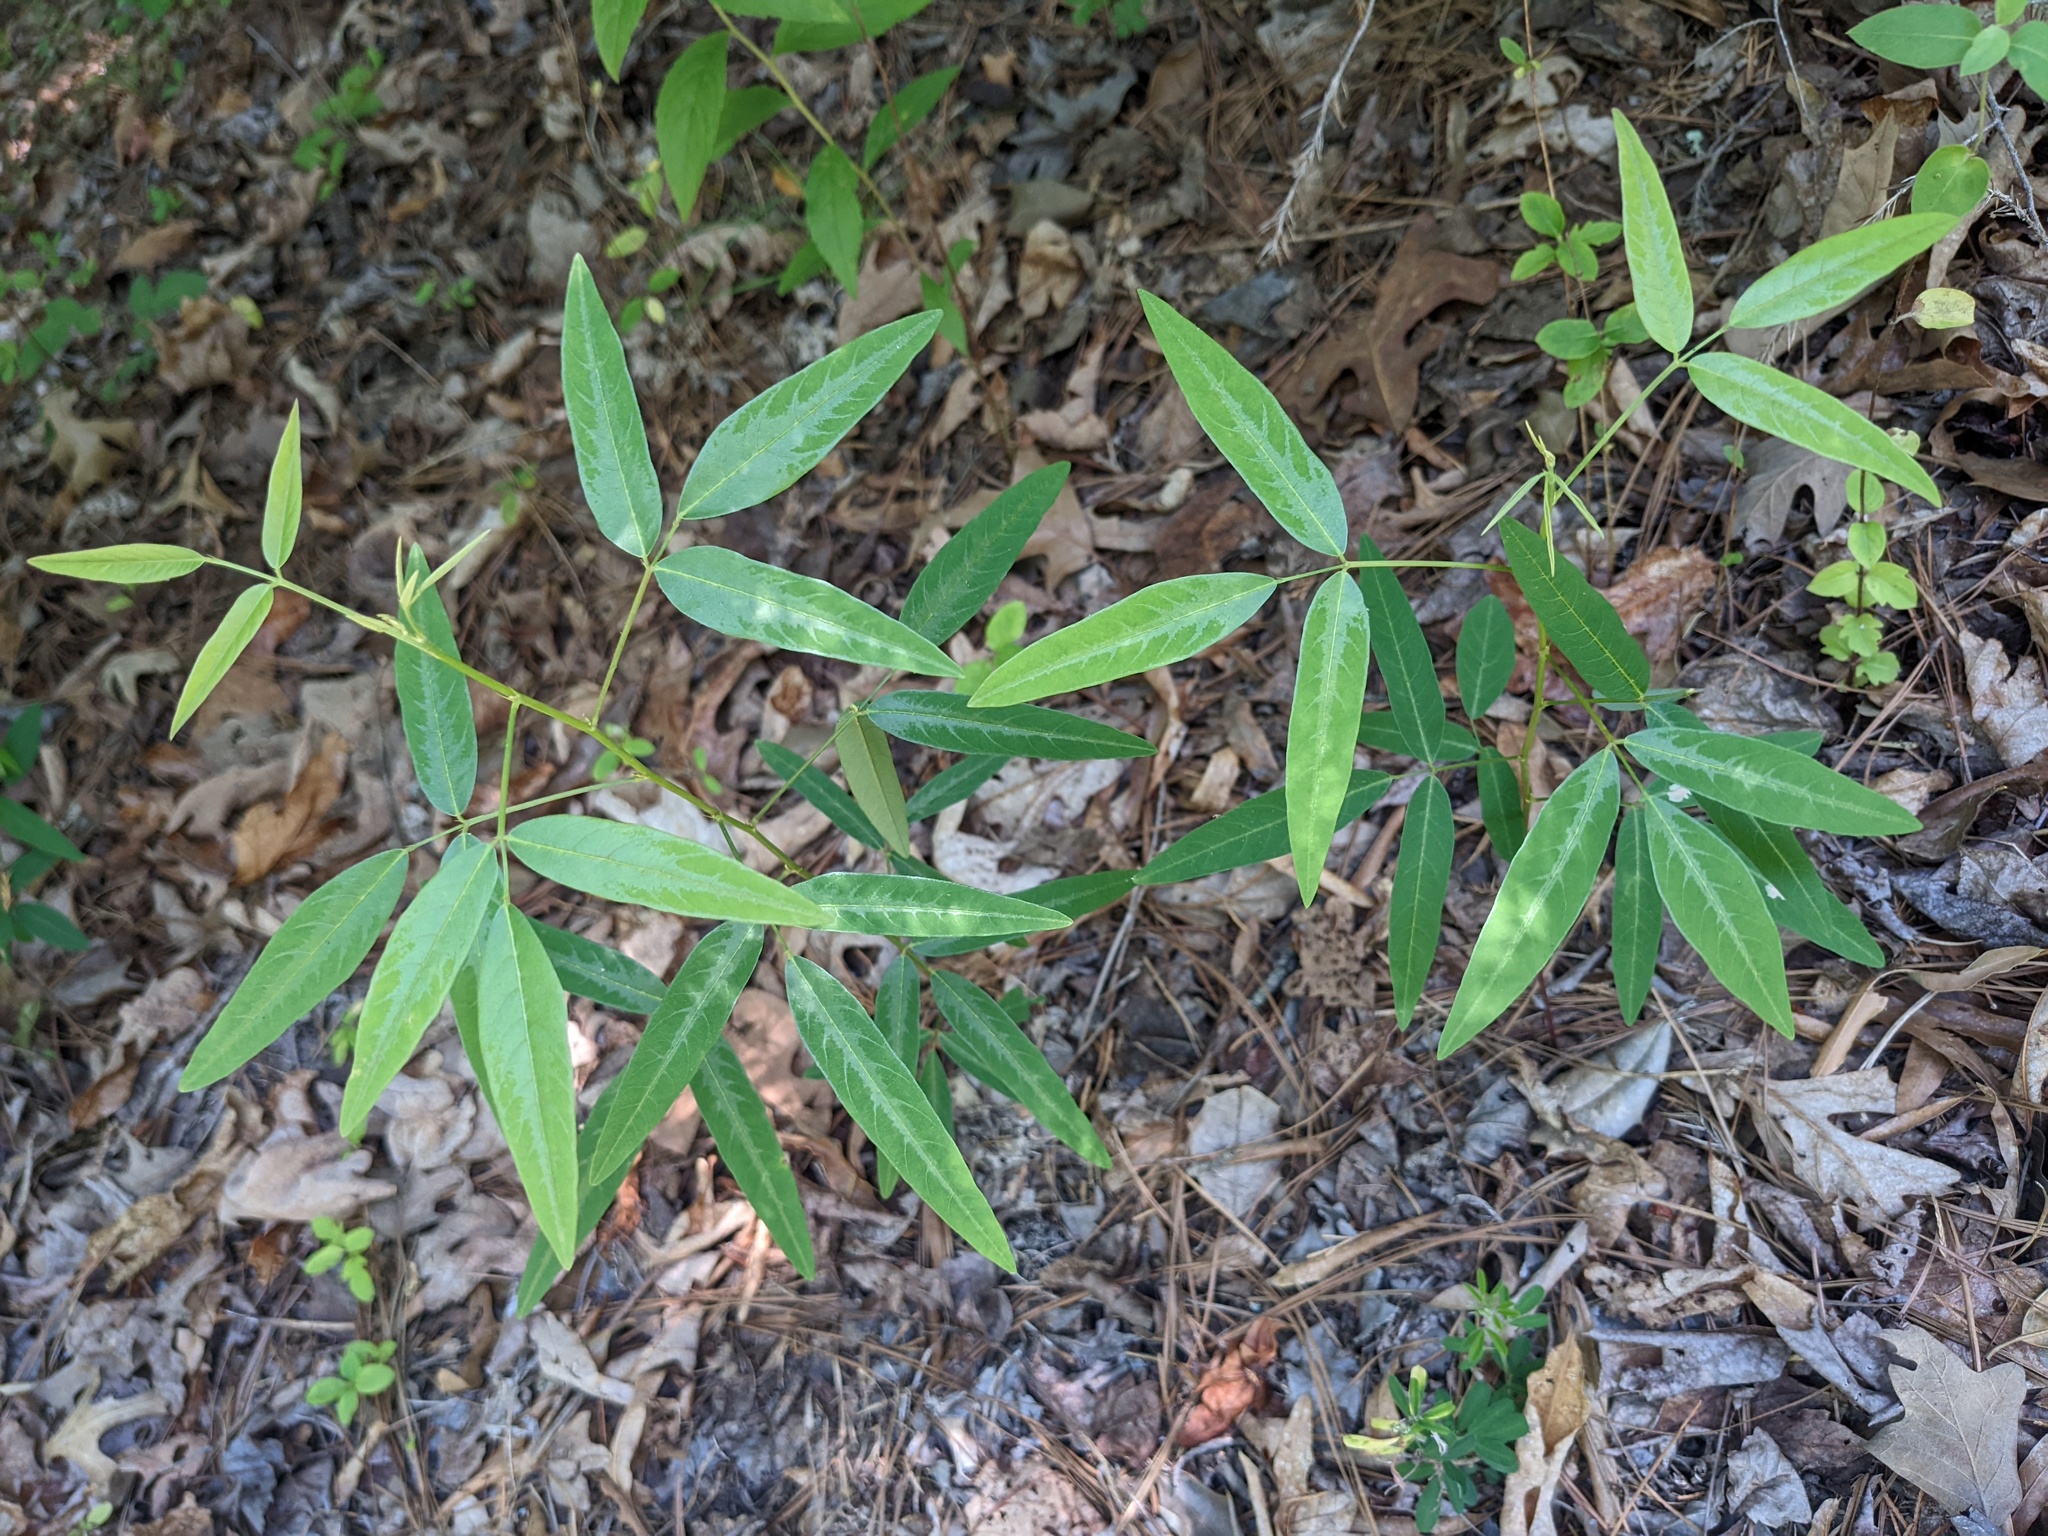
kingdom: Plantae
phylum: Tracheophyta
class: Magnoliopsida
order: Fabales
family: Fabaceae
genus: Desmodium
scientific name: Desmodium paniculatum
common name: Panicled tick-clover
